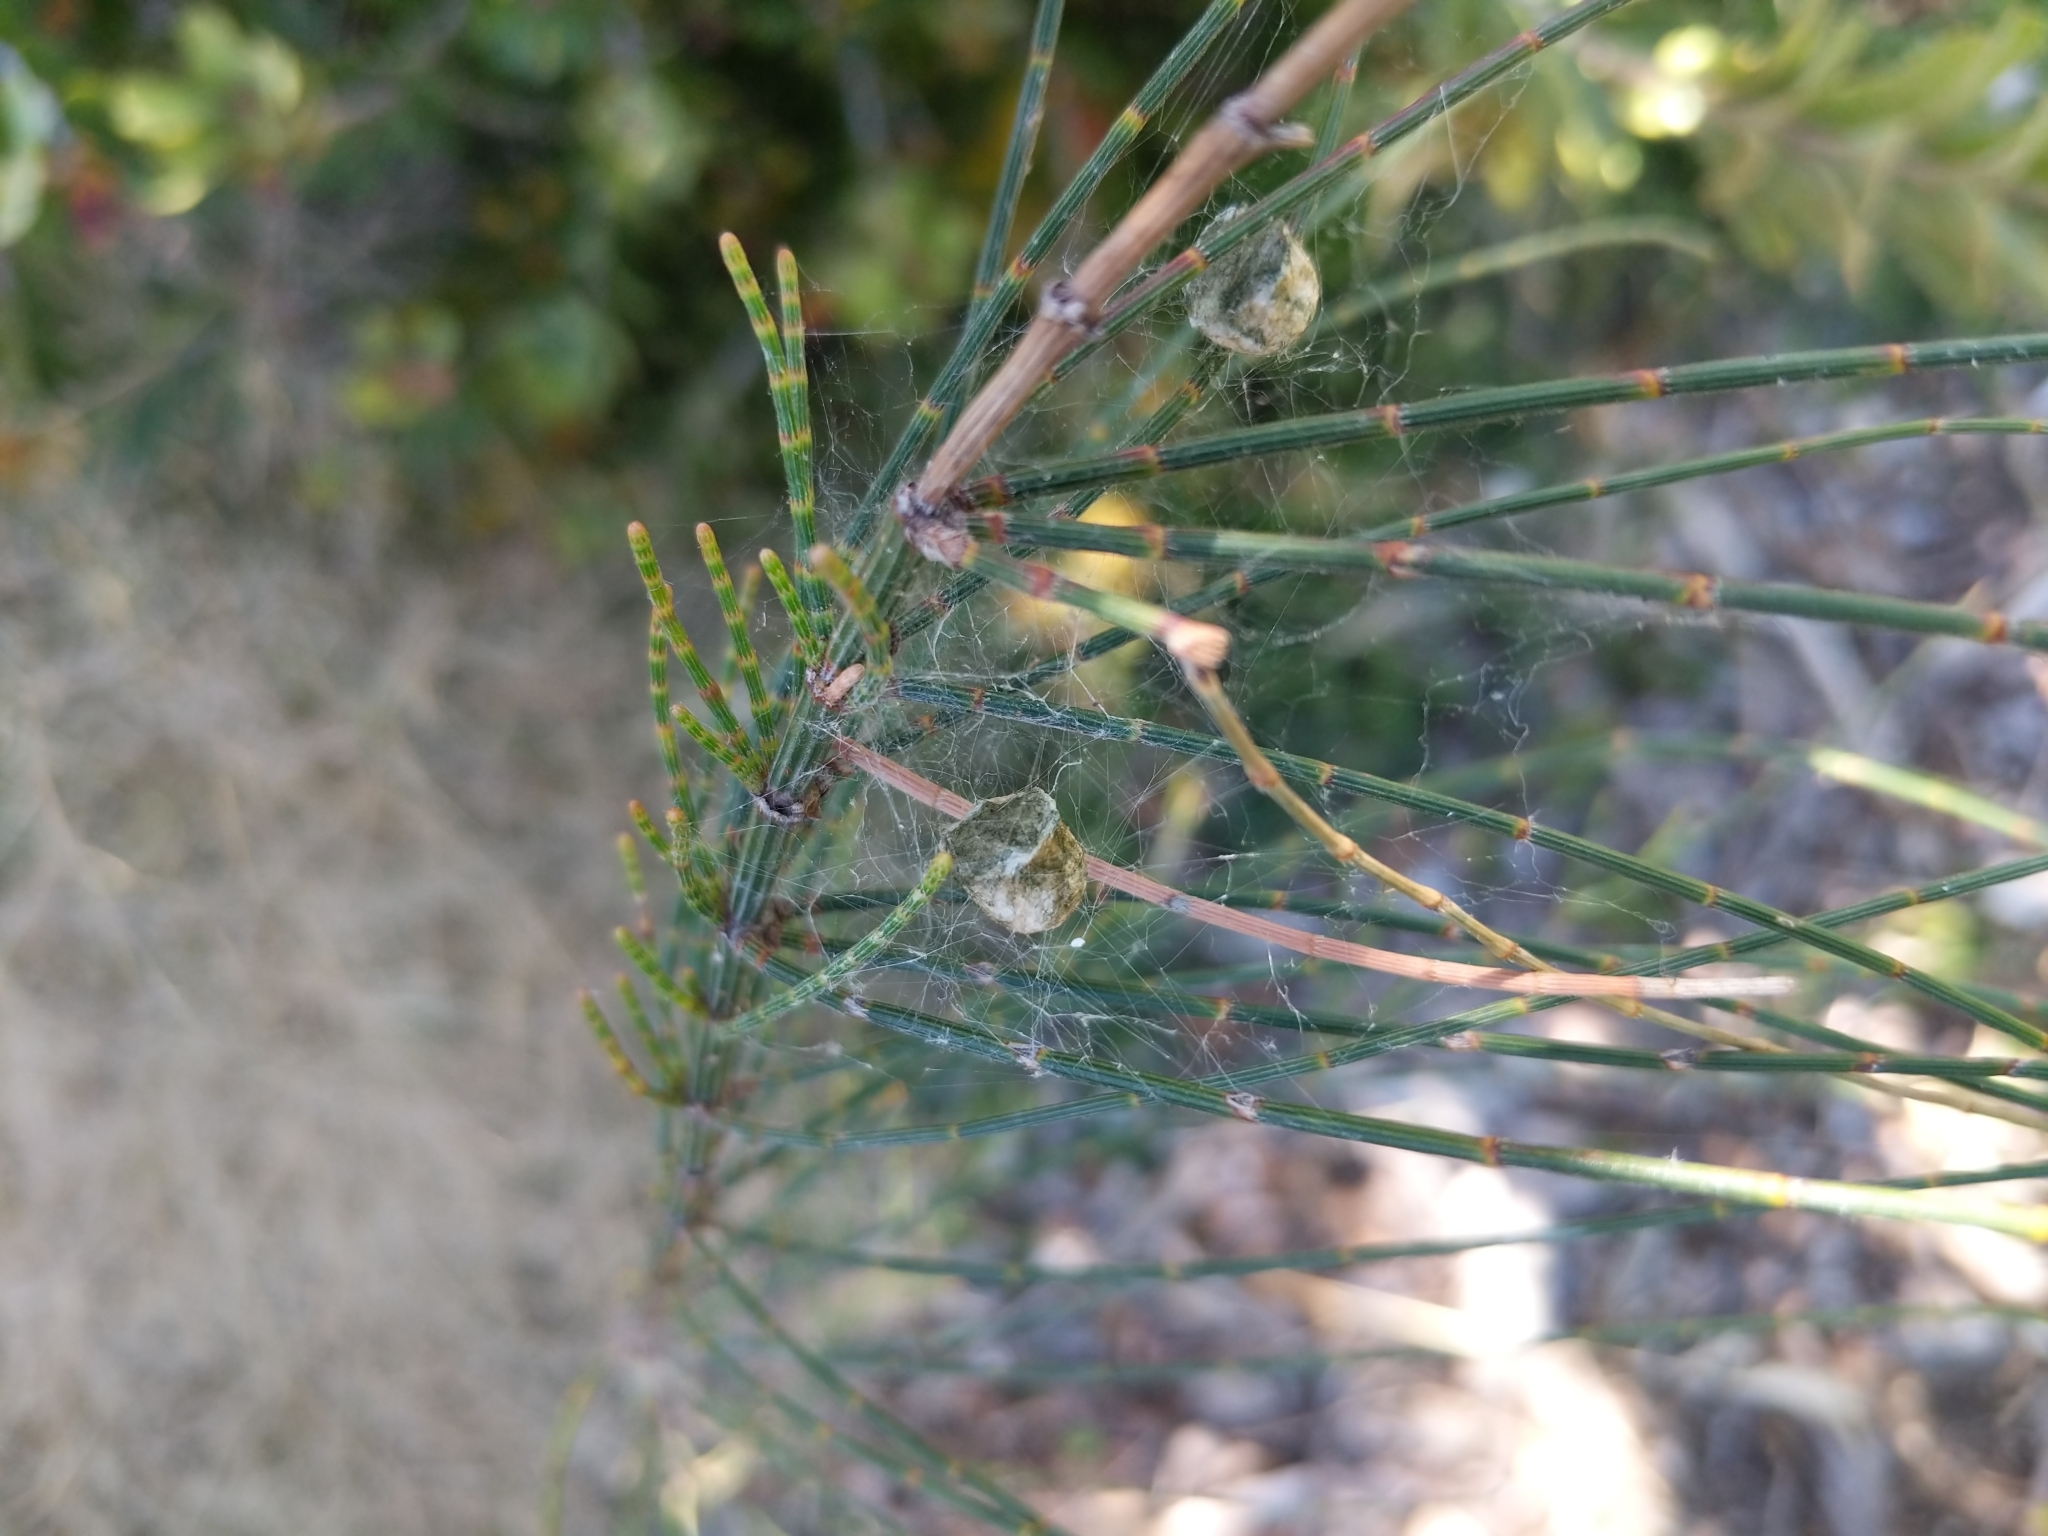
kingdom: Animalia
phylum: Arthropoda
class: Arachnida
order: Araneae
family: Araneidae
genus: Argiope
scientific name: Argiope protensa
